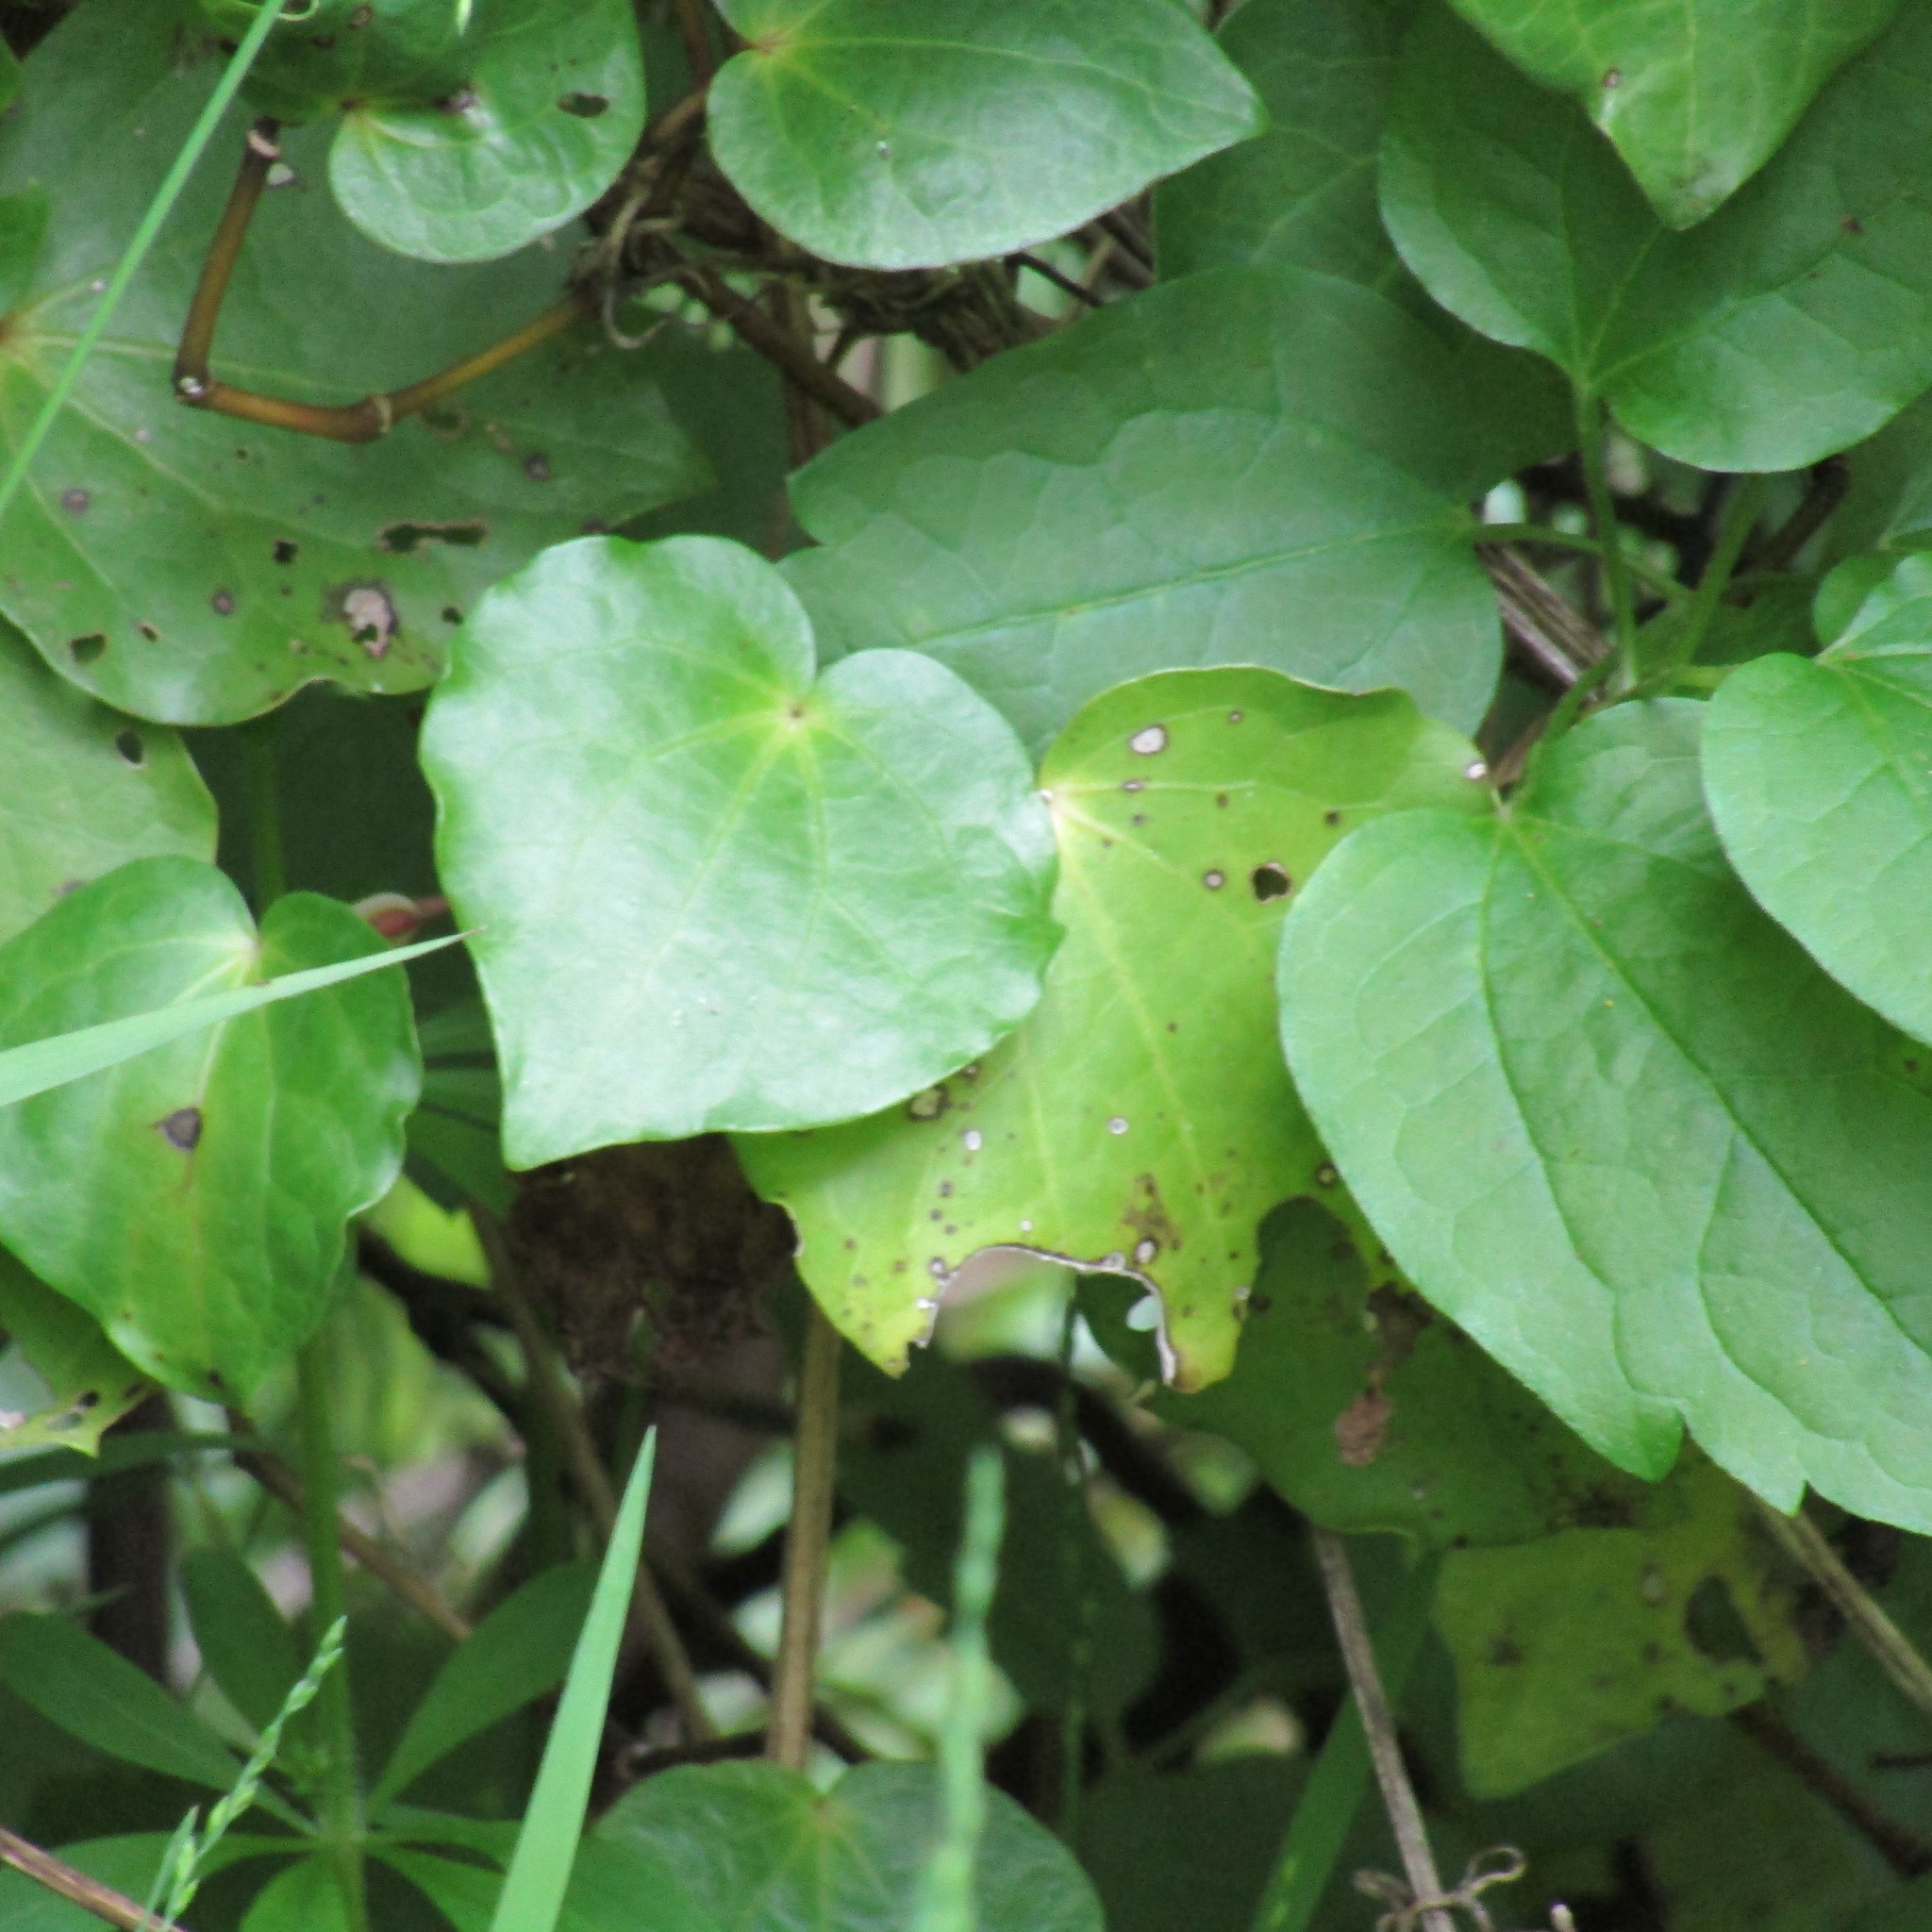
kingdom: Plantae
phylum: Tracheophyta
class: Magnoliopsida
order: Piperales
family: Piperaceae
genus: Macropiper
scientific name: Macropiper excelsum
